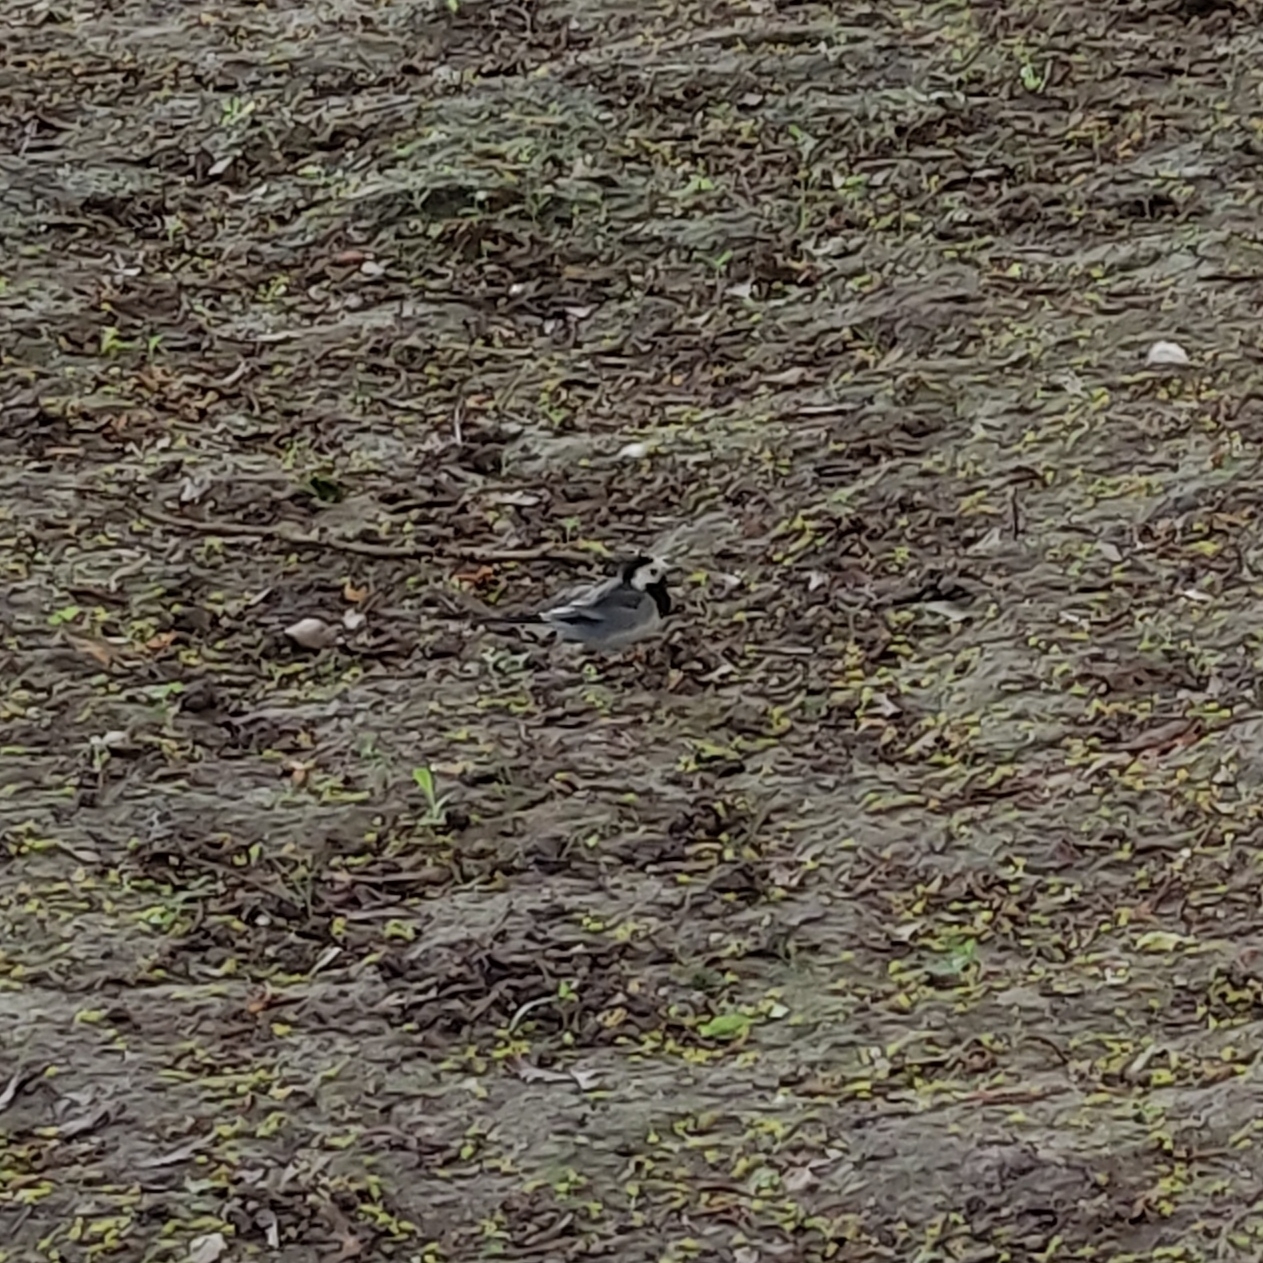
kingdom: Animalia
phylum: Chordata
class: Aves
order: Passeriformes
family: Motacillidae
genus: Motacilla
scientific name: Motacilla alba
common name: White wagtail
